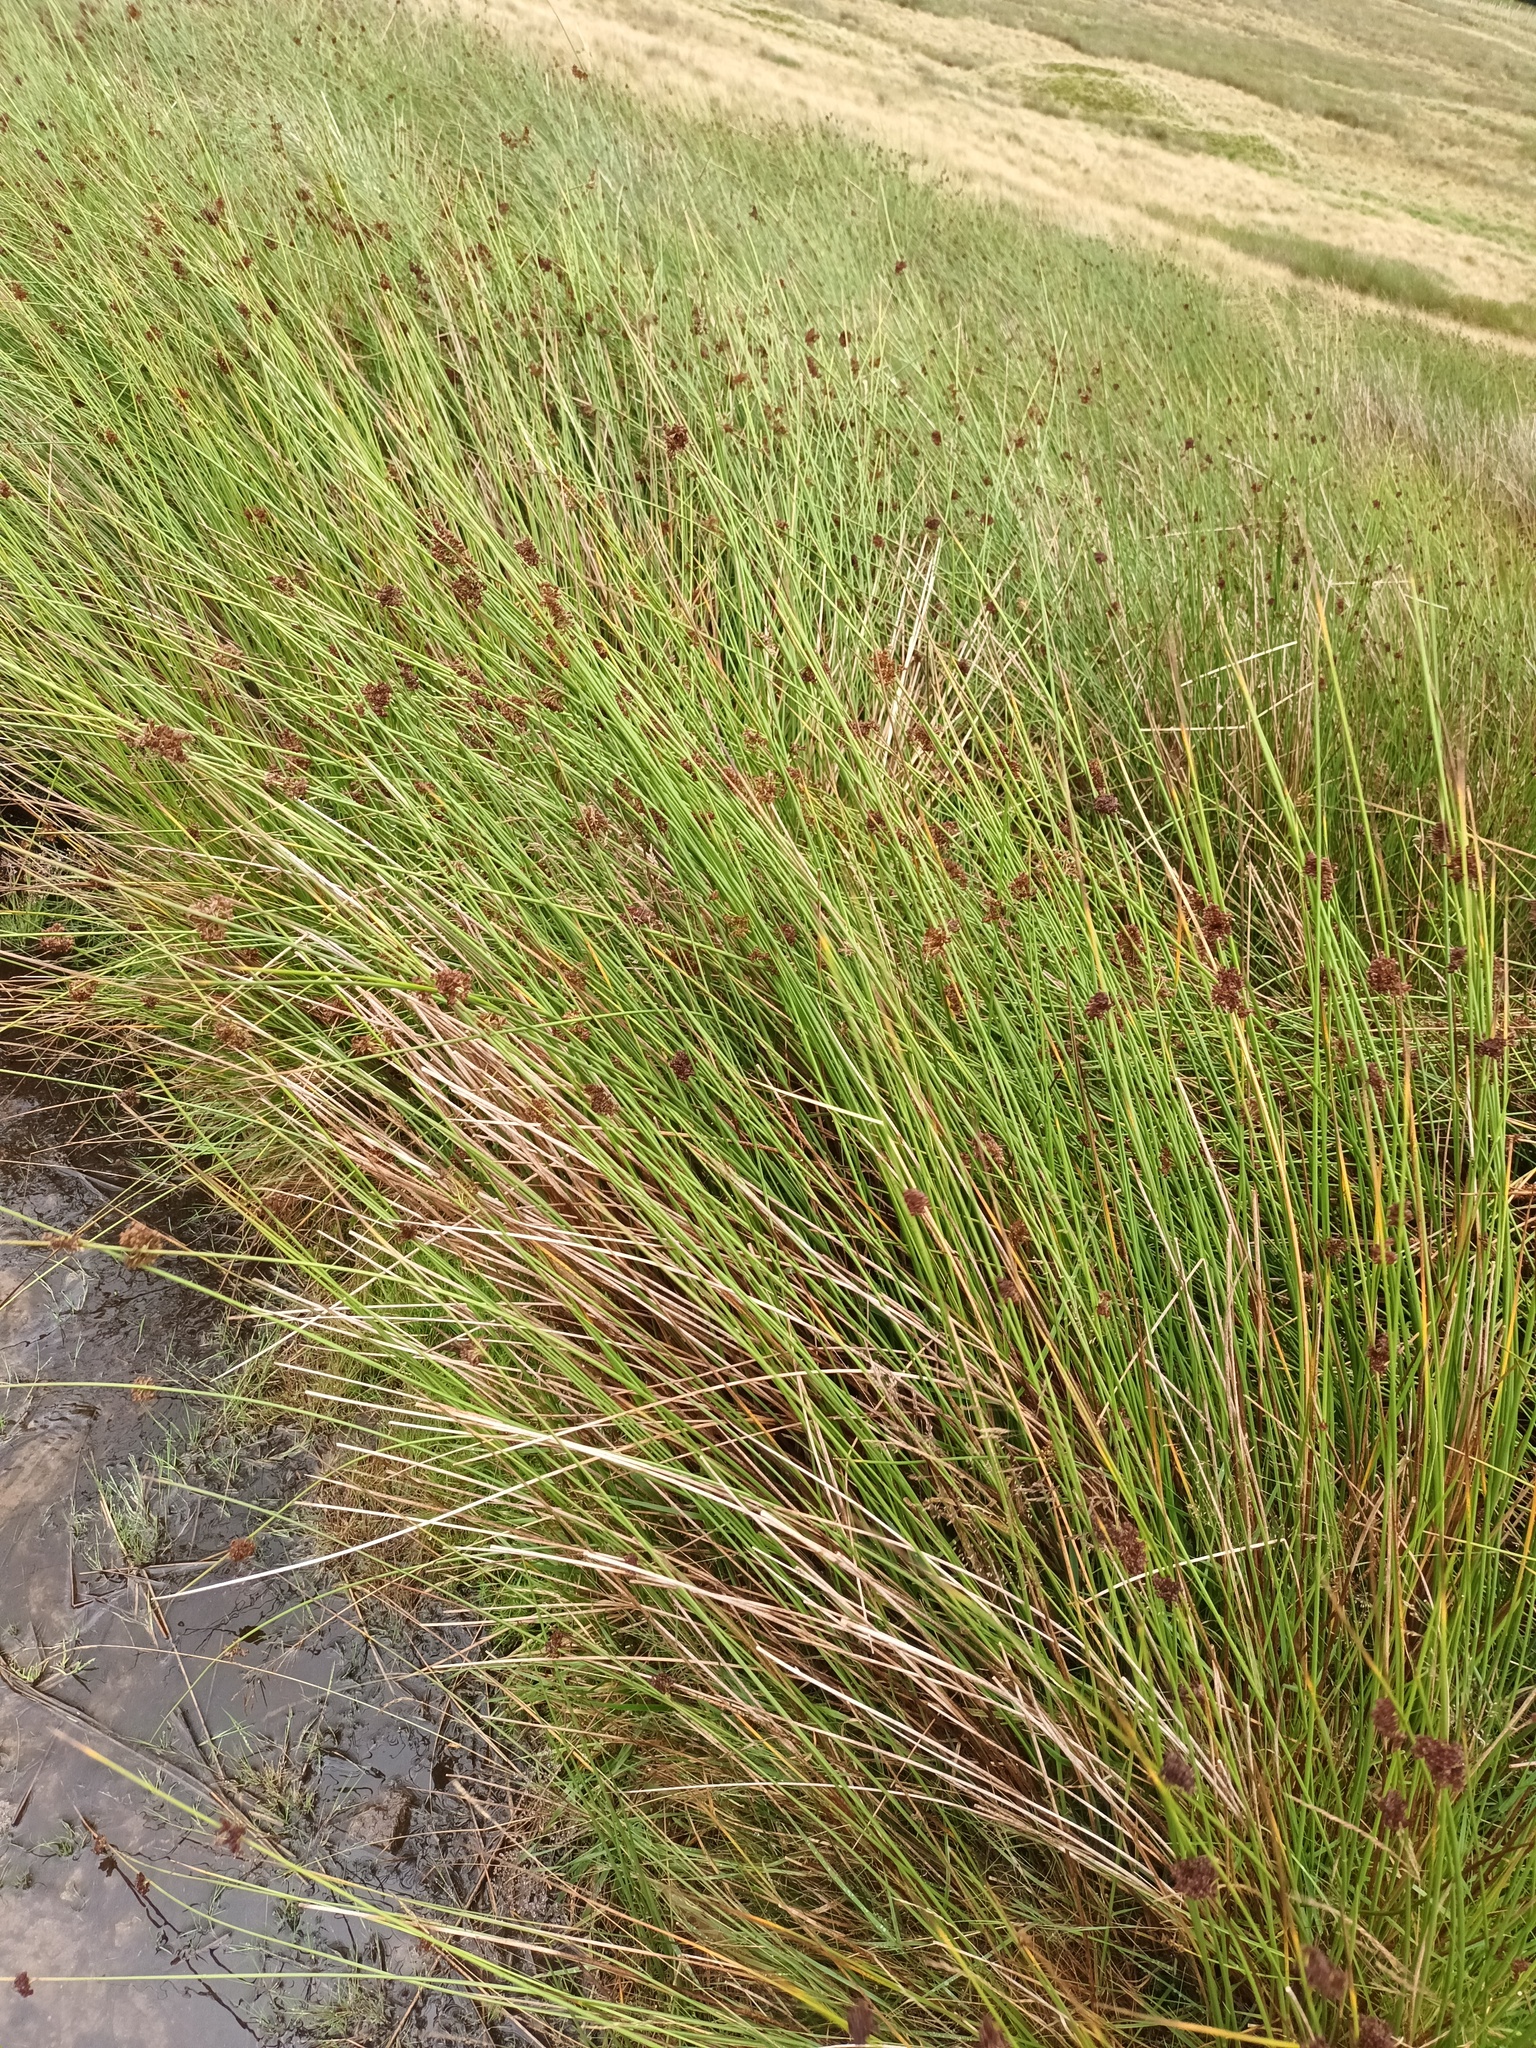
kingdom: Plantae
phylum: Tracheophyta
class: Liliopsida
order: Poales
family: Juncaceae
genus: Juncus
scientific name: Juncus effusus
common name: Soft rush
